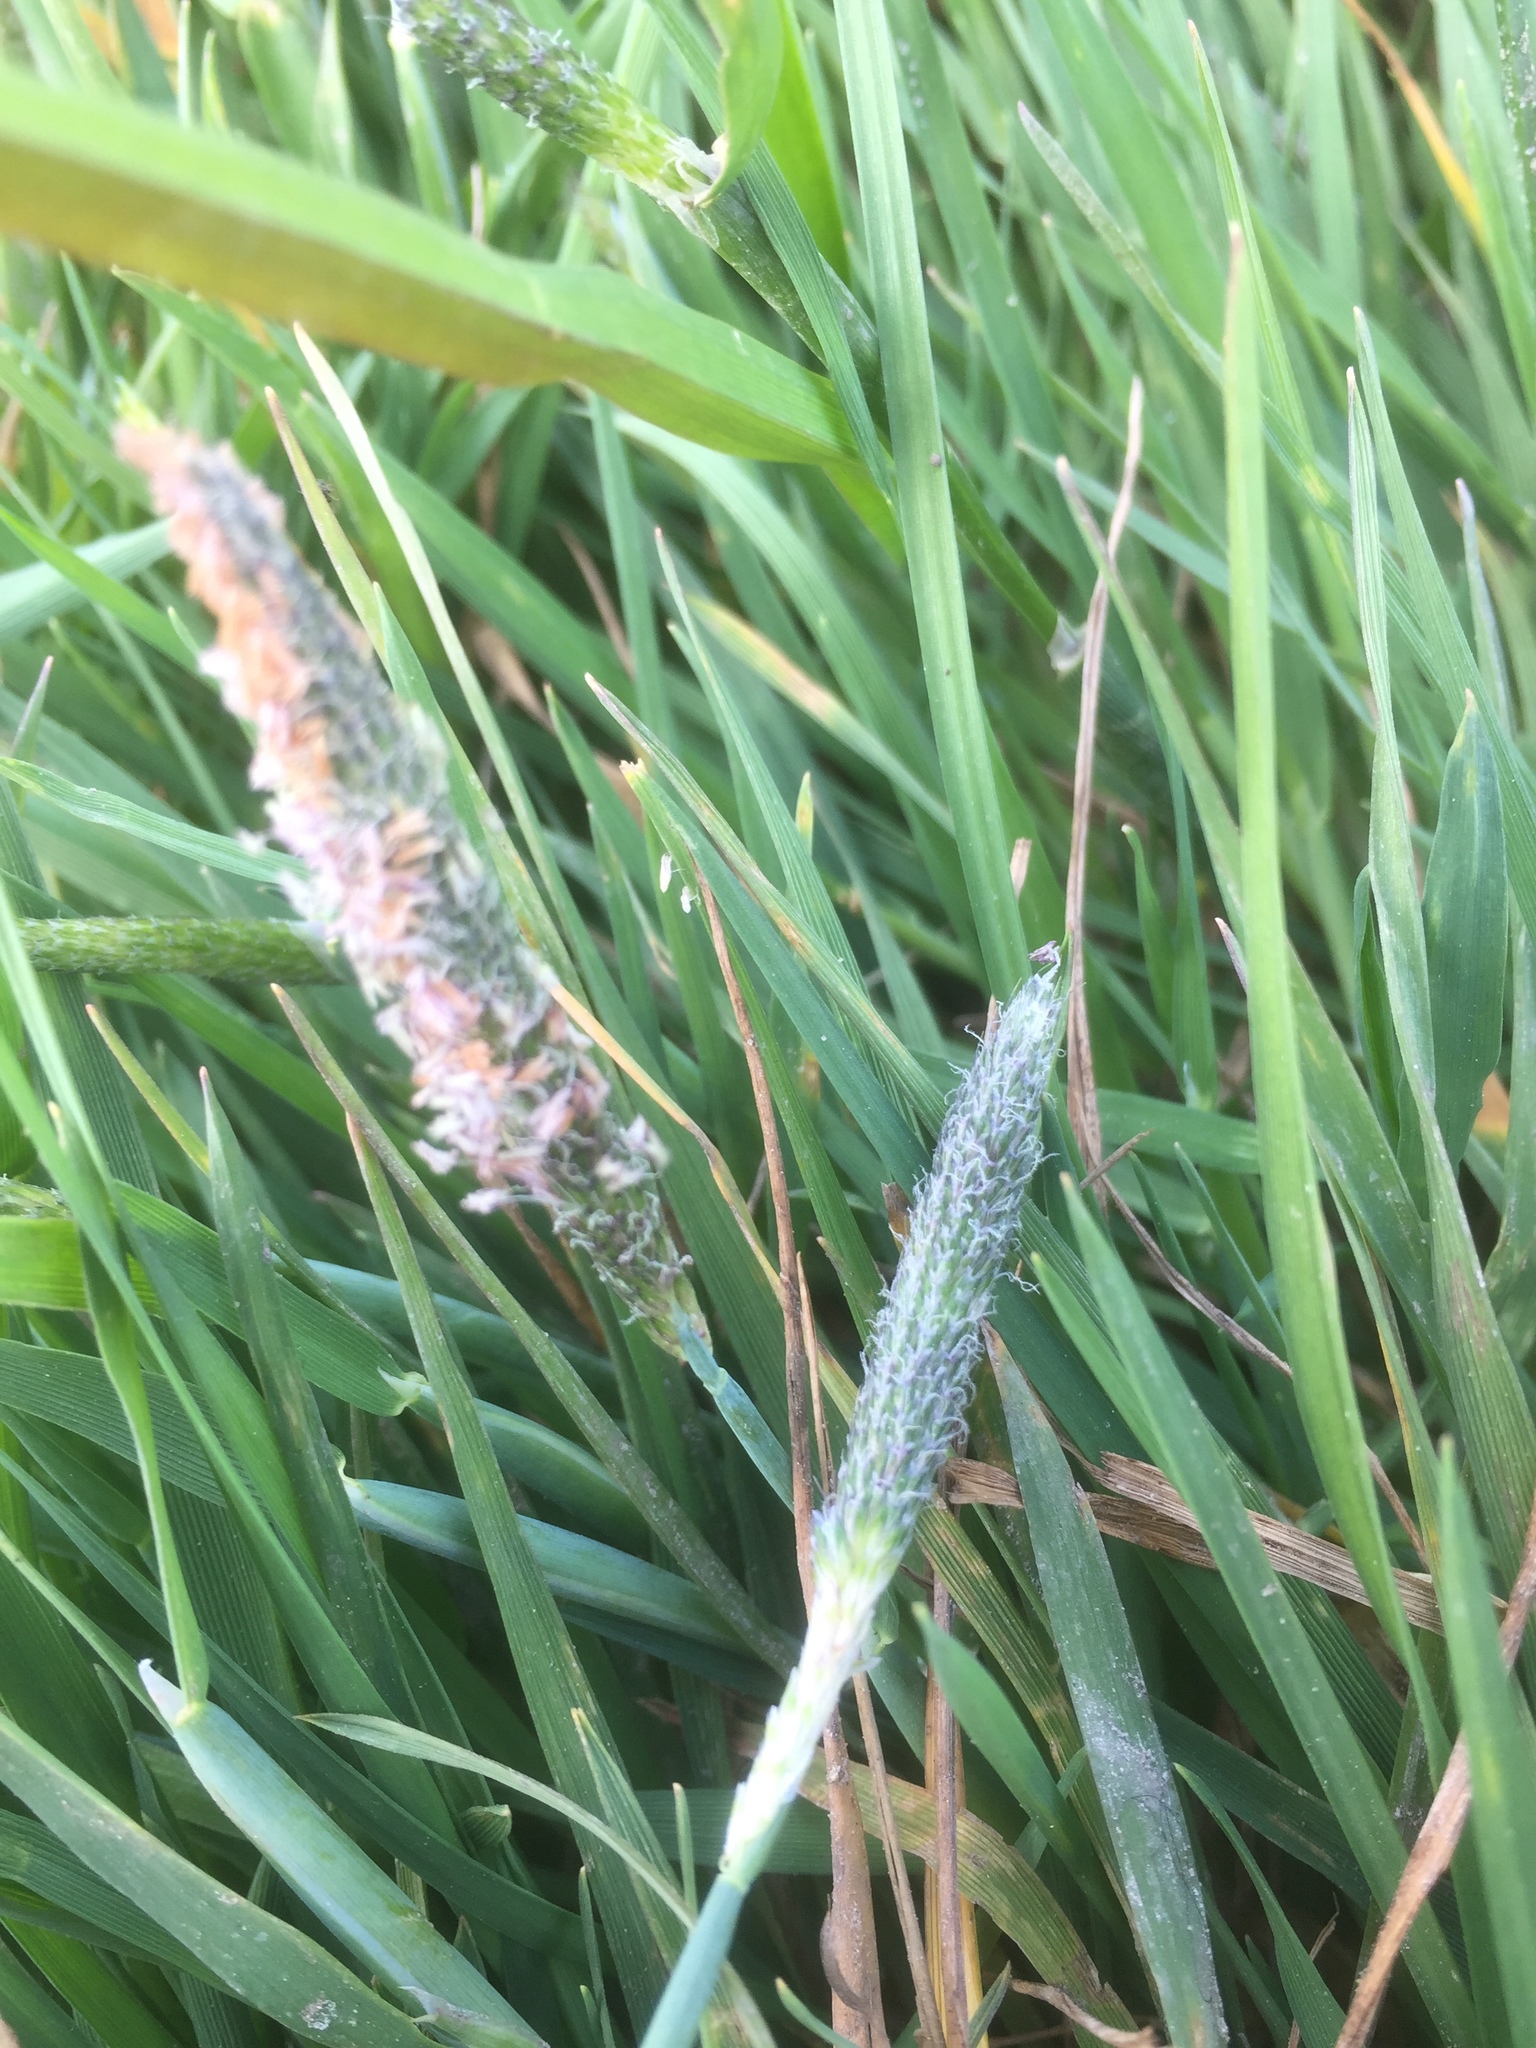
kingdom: Plantae
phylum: Tracheophyta
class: Liliopsida
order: Poales
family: Poaceae
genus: Alopecurus
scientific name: Alopecurus pratensis
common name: Meadow foxtail
